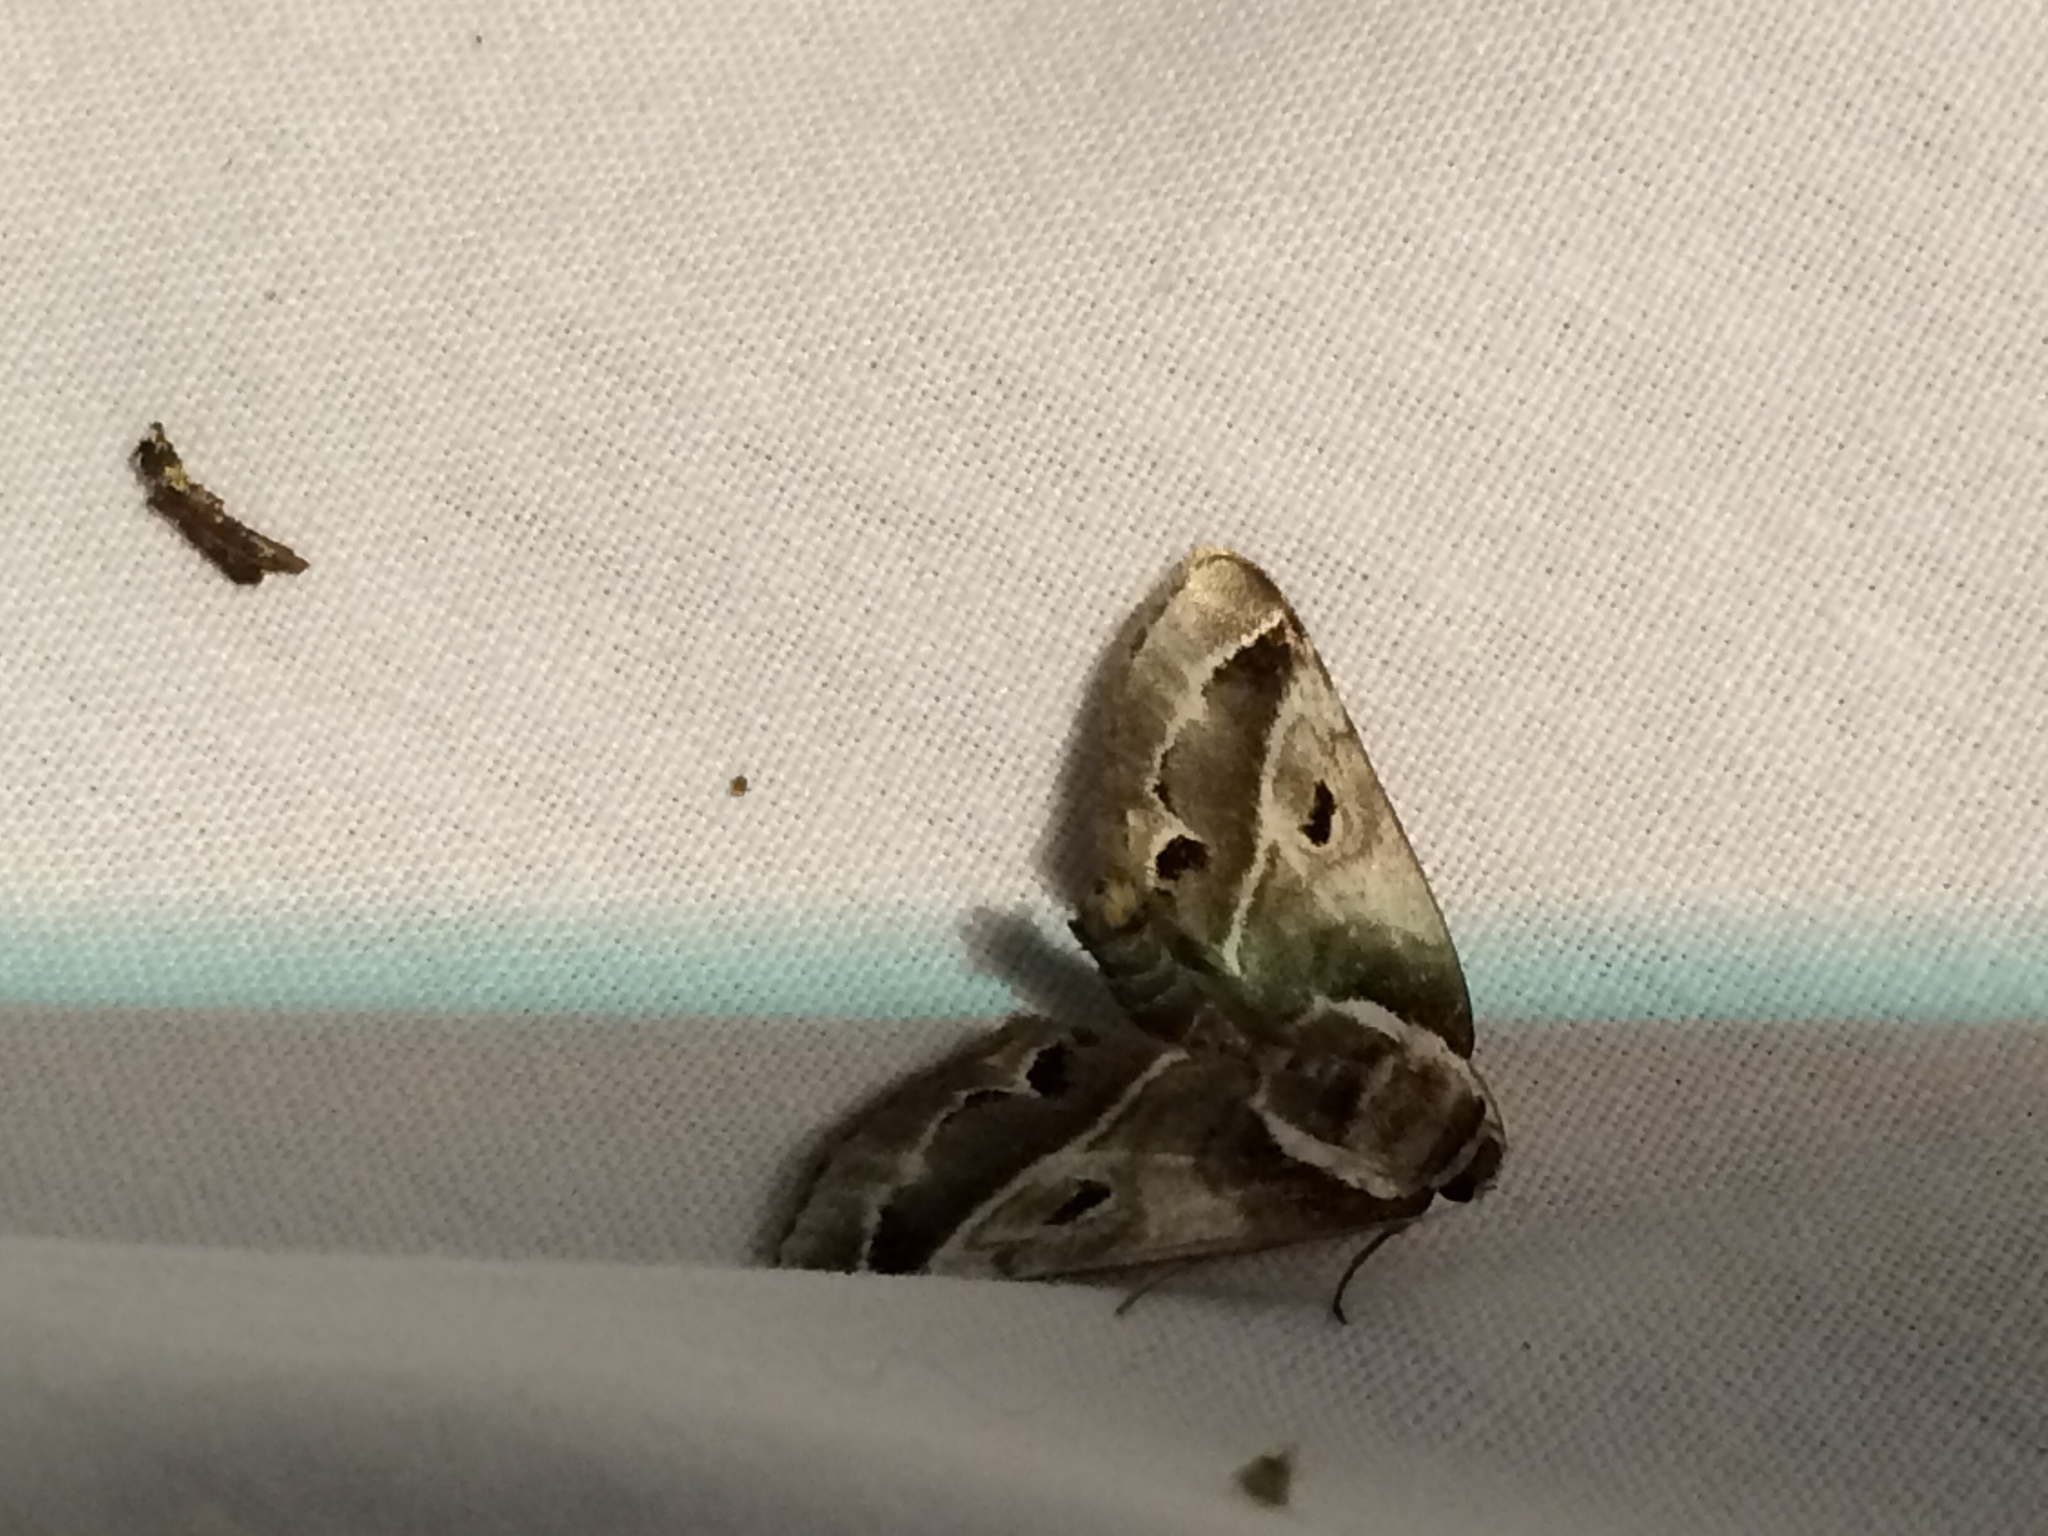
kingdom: Animalia
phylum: Arthropoda
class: Insecta
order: Lepidoptera
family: Nolidae
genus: Baileya
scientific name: Baileya doubledayi
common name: Doubleday's baileya moth
